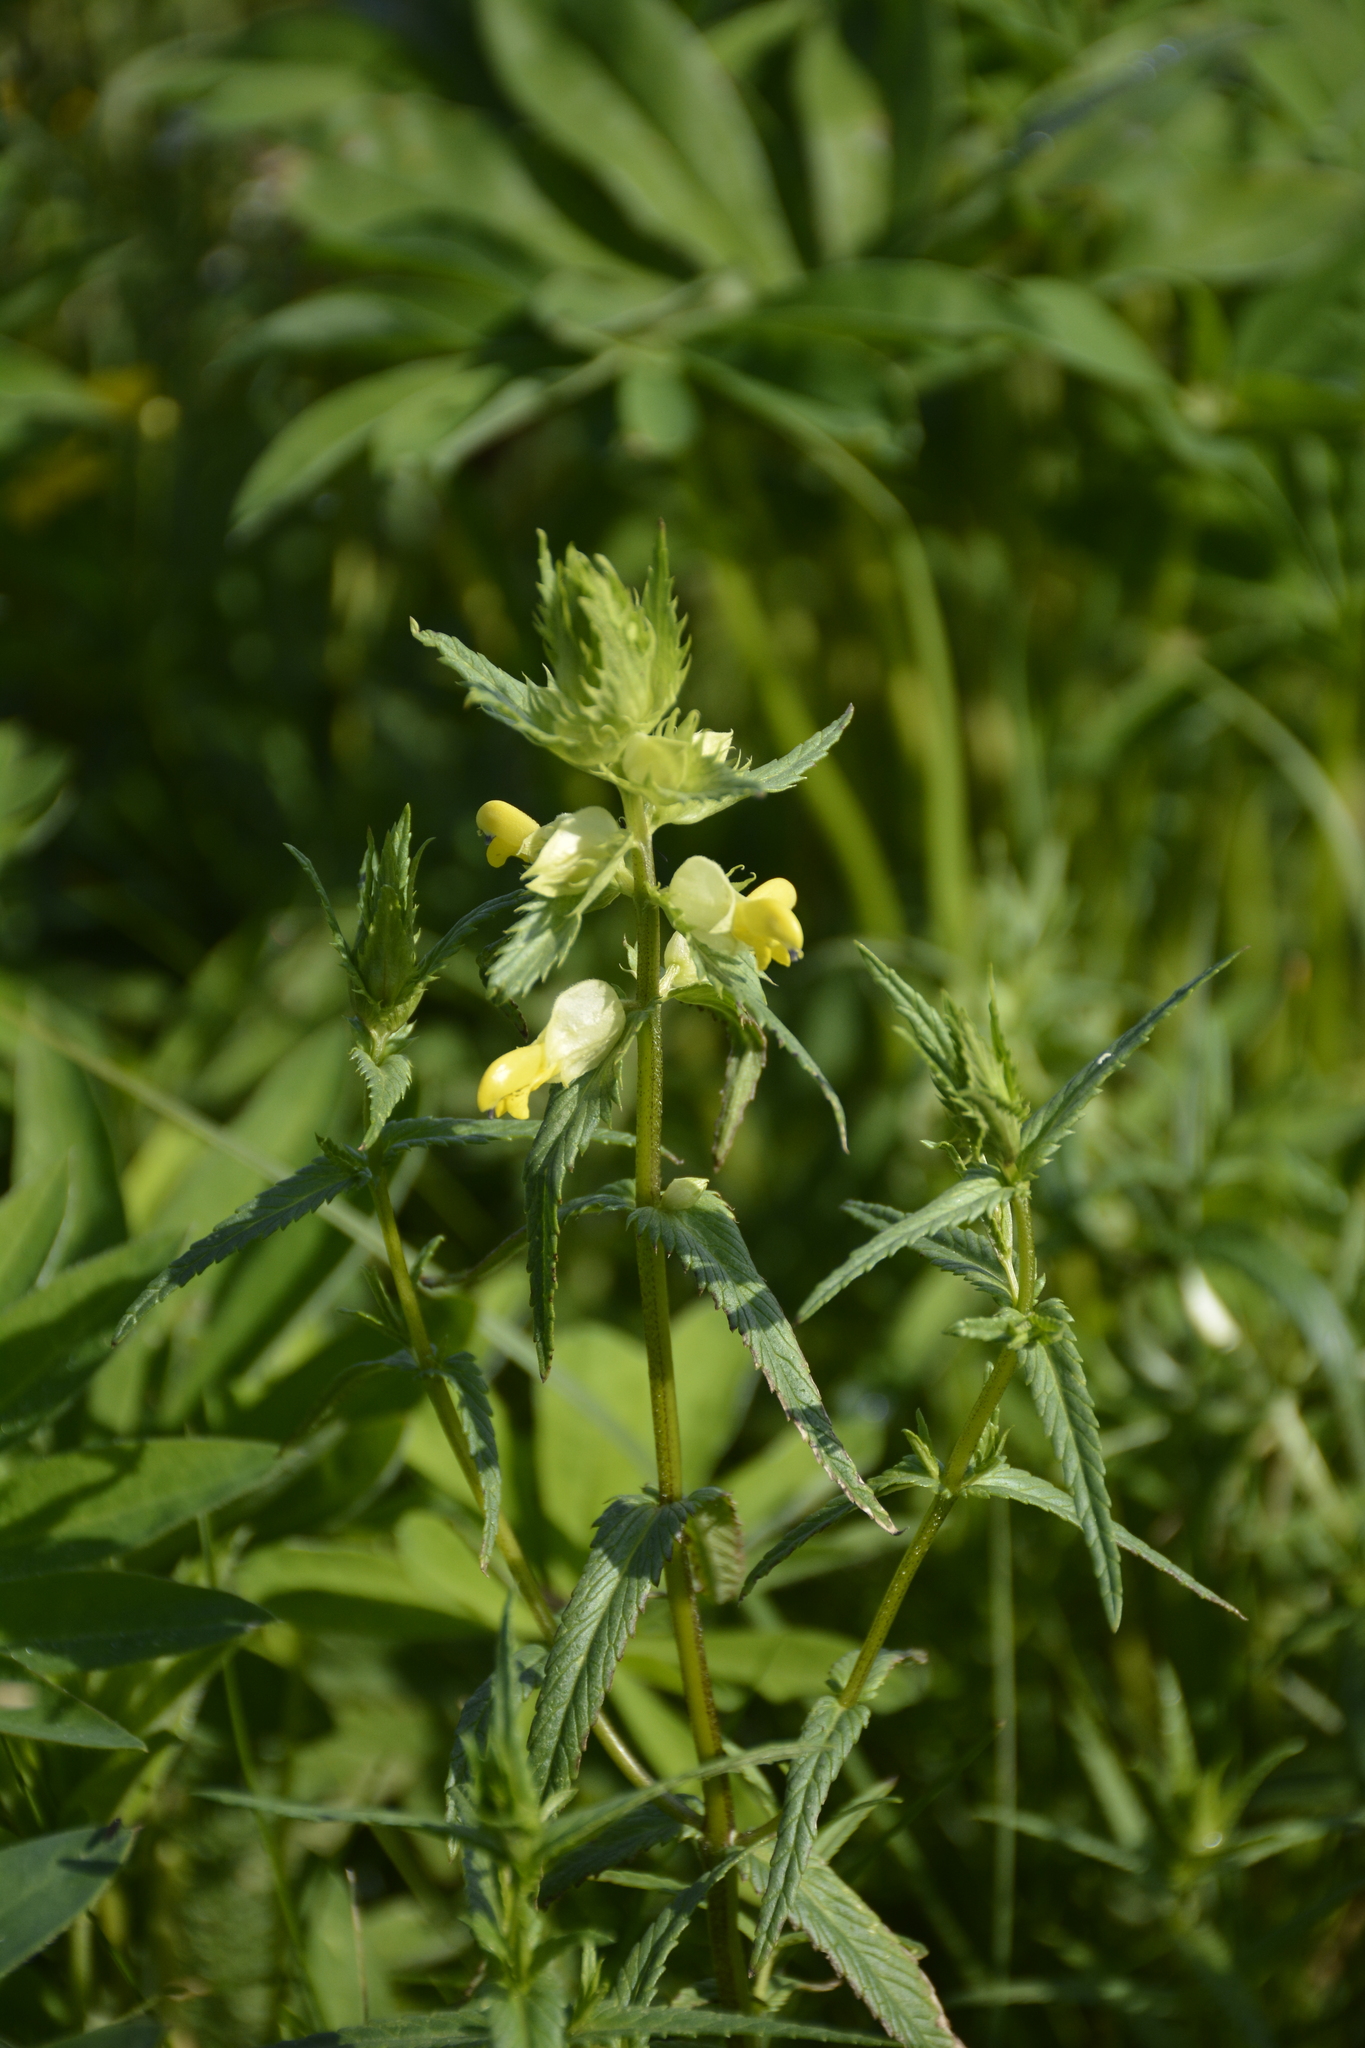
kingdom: Plantae
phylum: Tracheophyta
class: Magnoliopsida
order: Lamiales
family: Orobanchaceae
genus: Rhinanthus
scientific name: Rhinanthus serotinus
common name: Late-flowering yellow rattle
